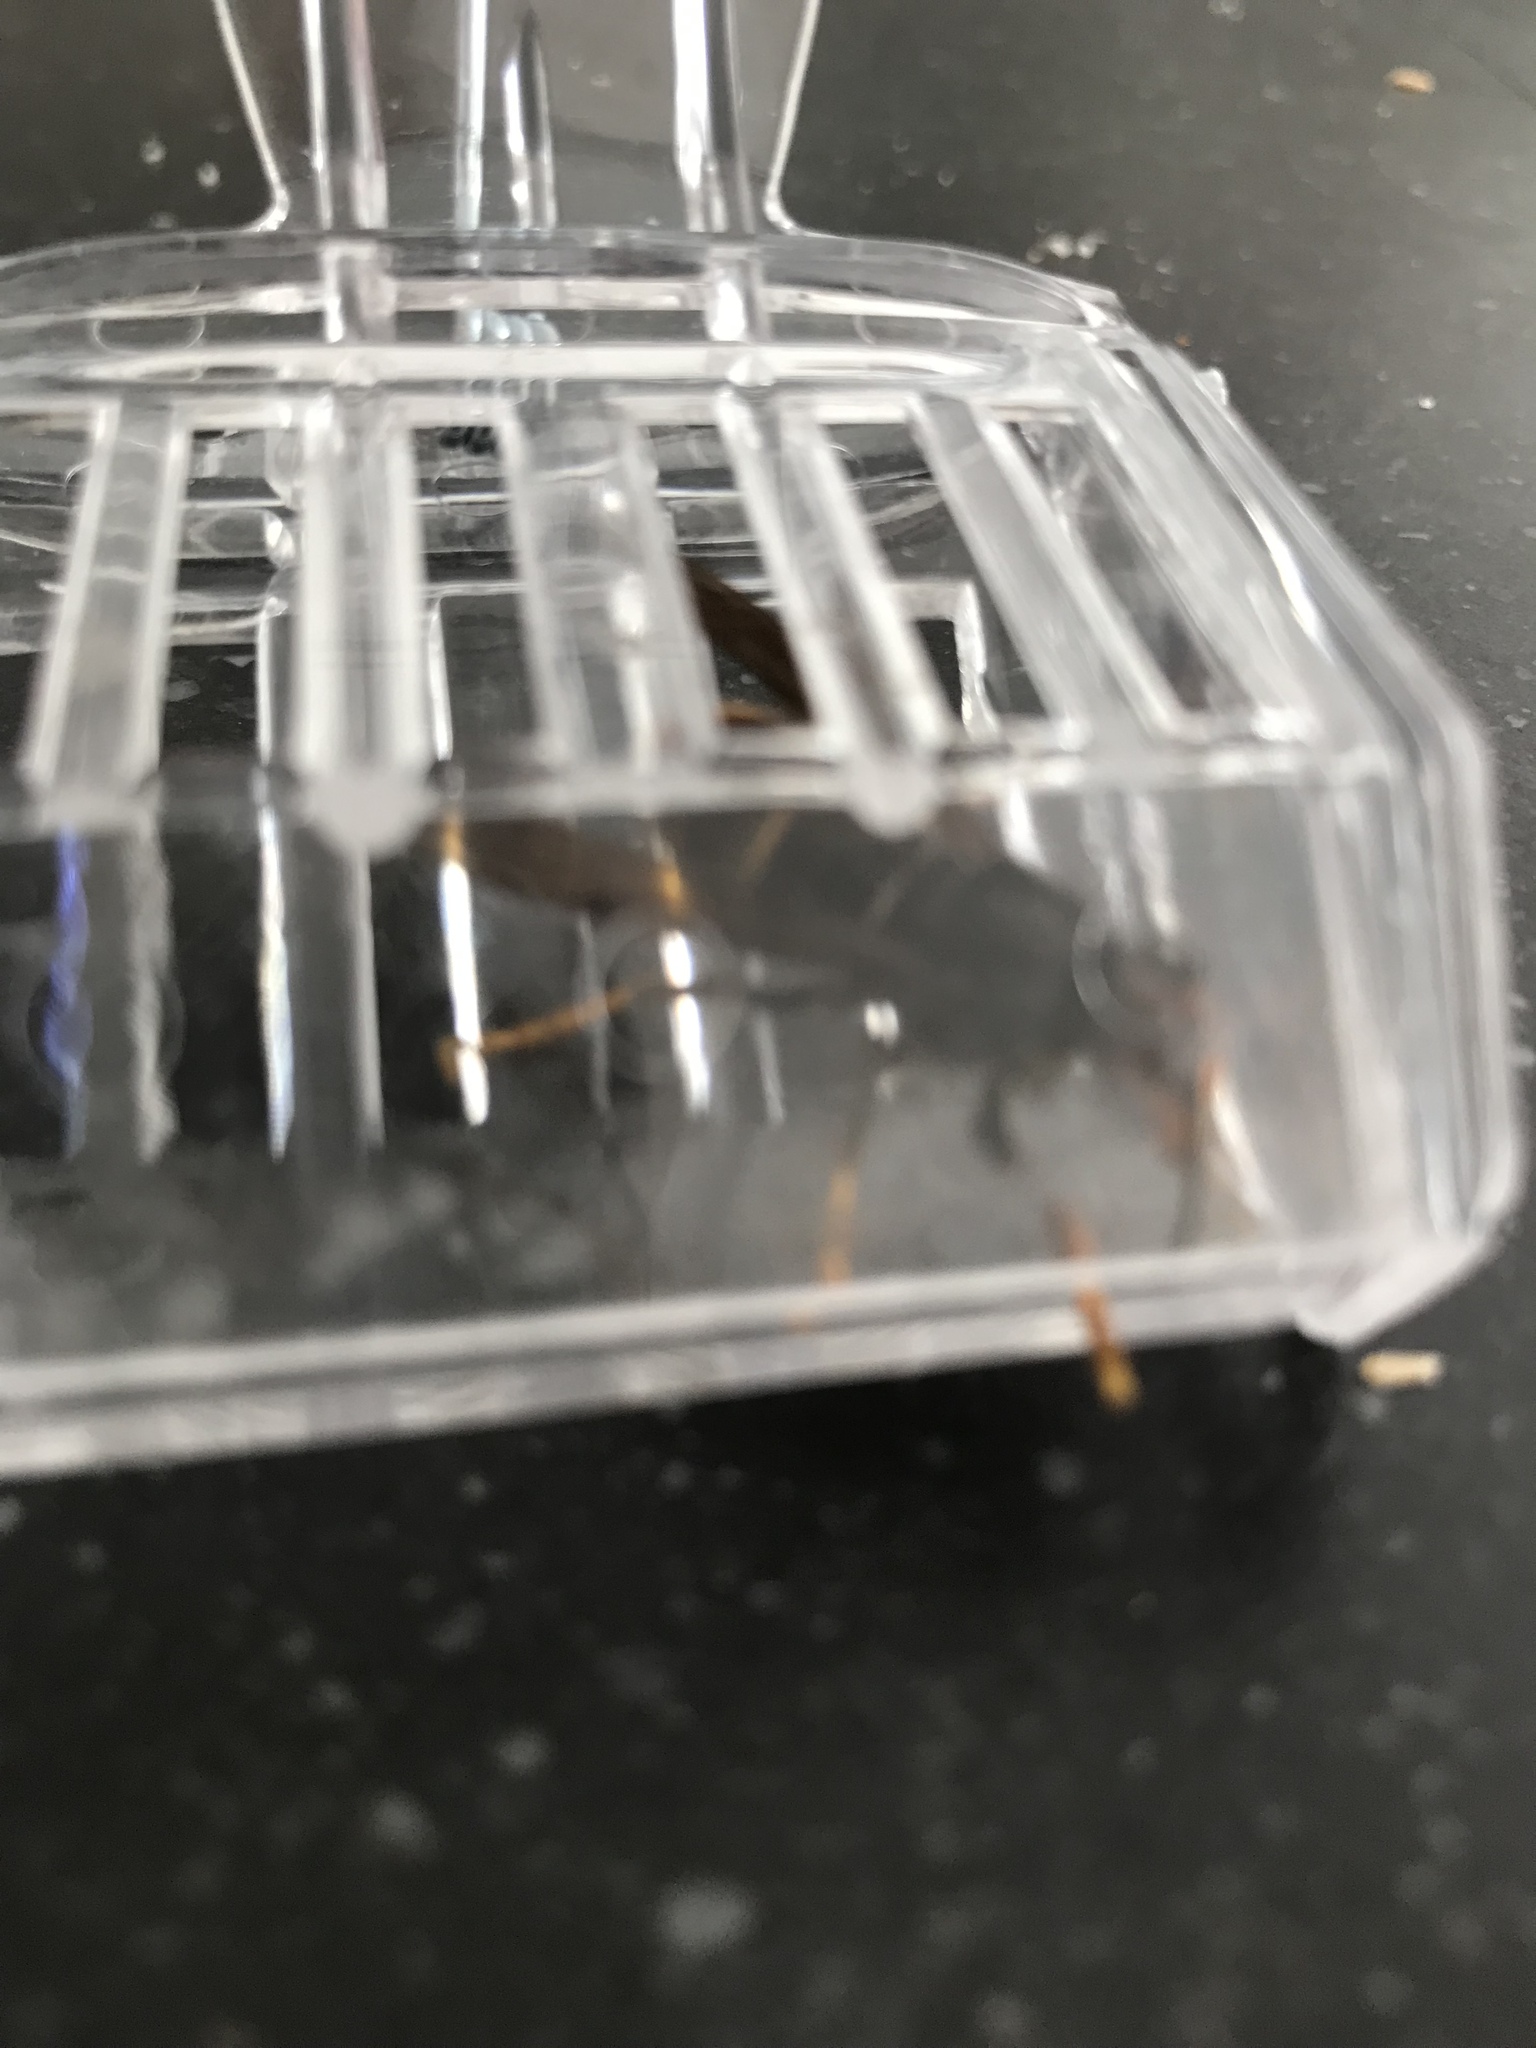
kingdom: Animalia
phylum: Arthropoda
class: Insecta
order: Hymenoptera
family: Vespidae
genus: Vespa
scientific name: Vespa velutina
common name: Asian hornet
